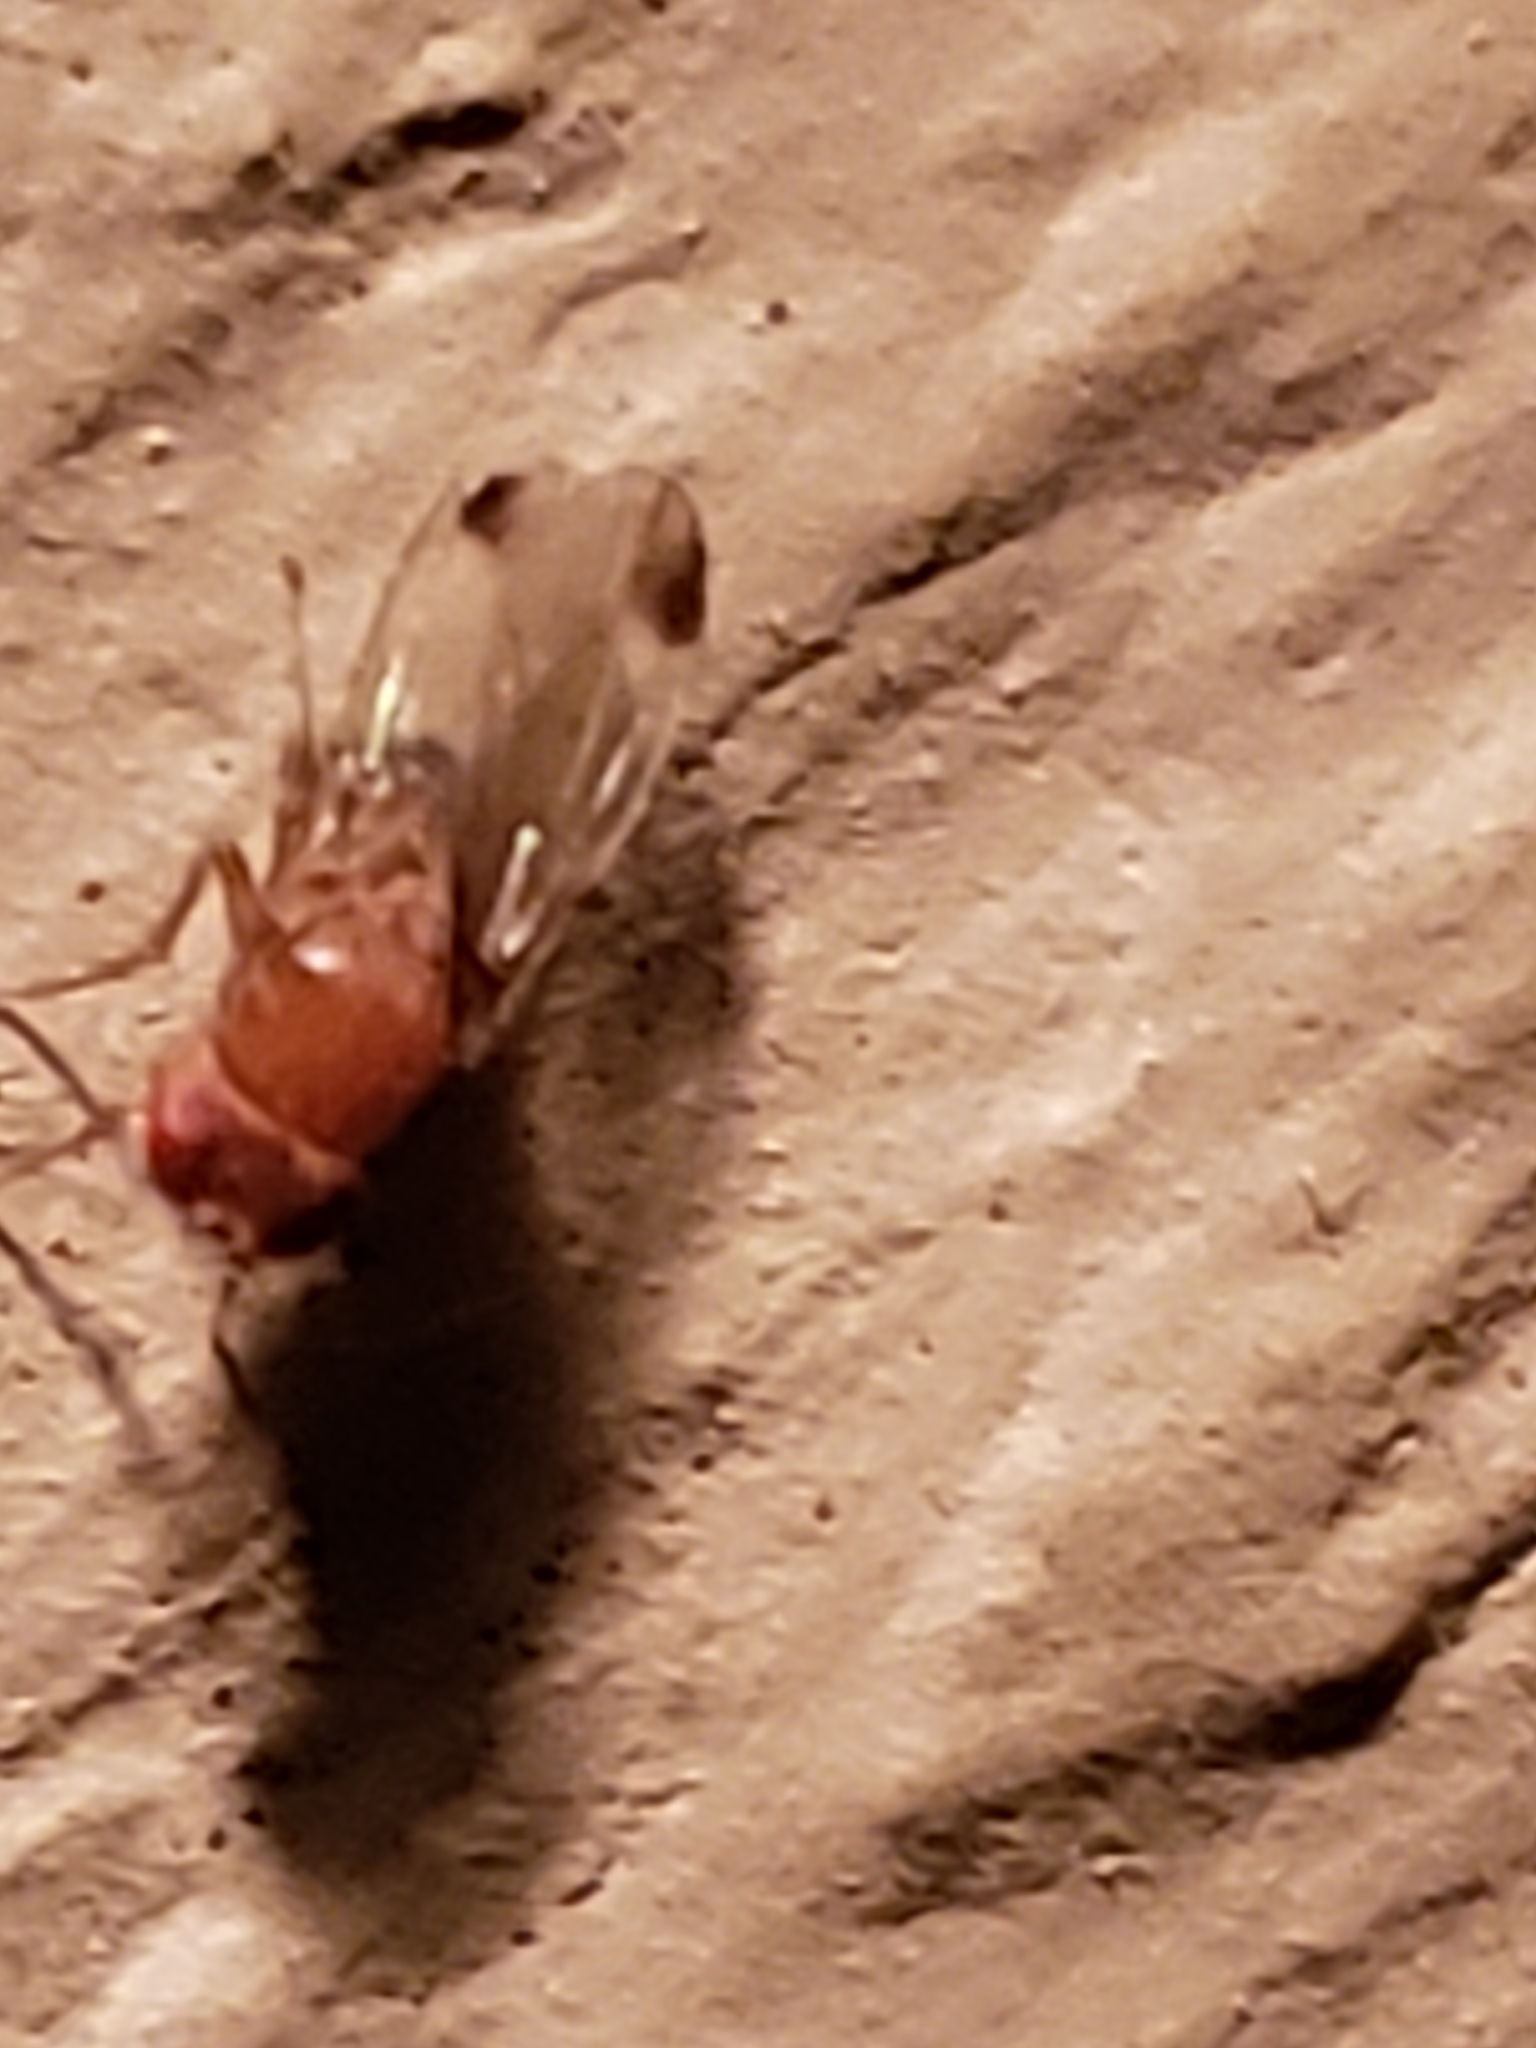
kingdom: Animalia
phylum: Arthropoda
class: Insecta
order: Diptera
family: Drosophilidae
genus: Drosophila
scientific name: Drosophila suzukii
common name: Spotted-wing drosophila
